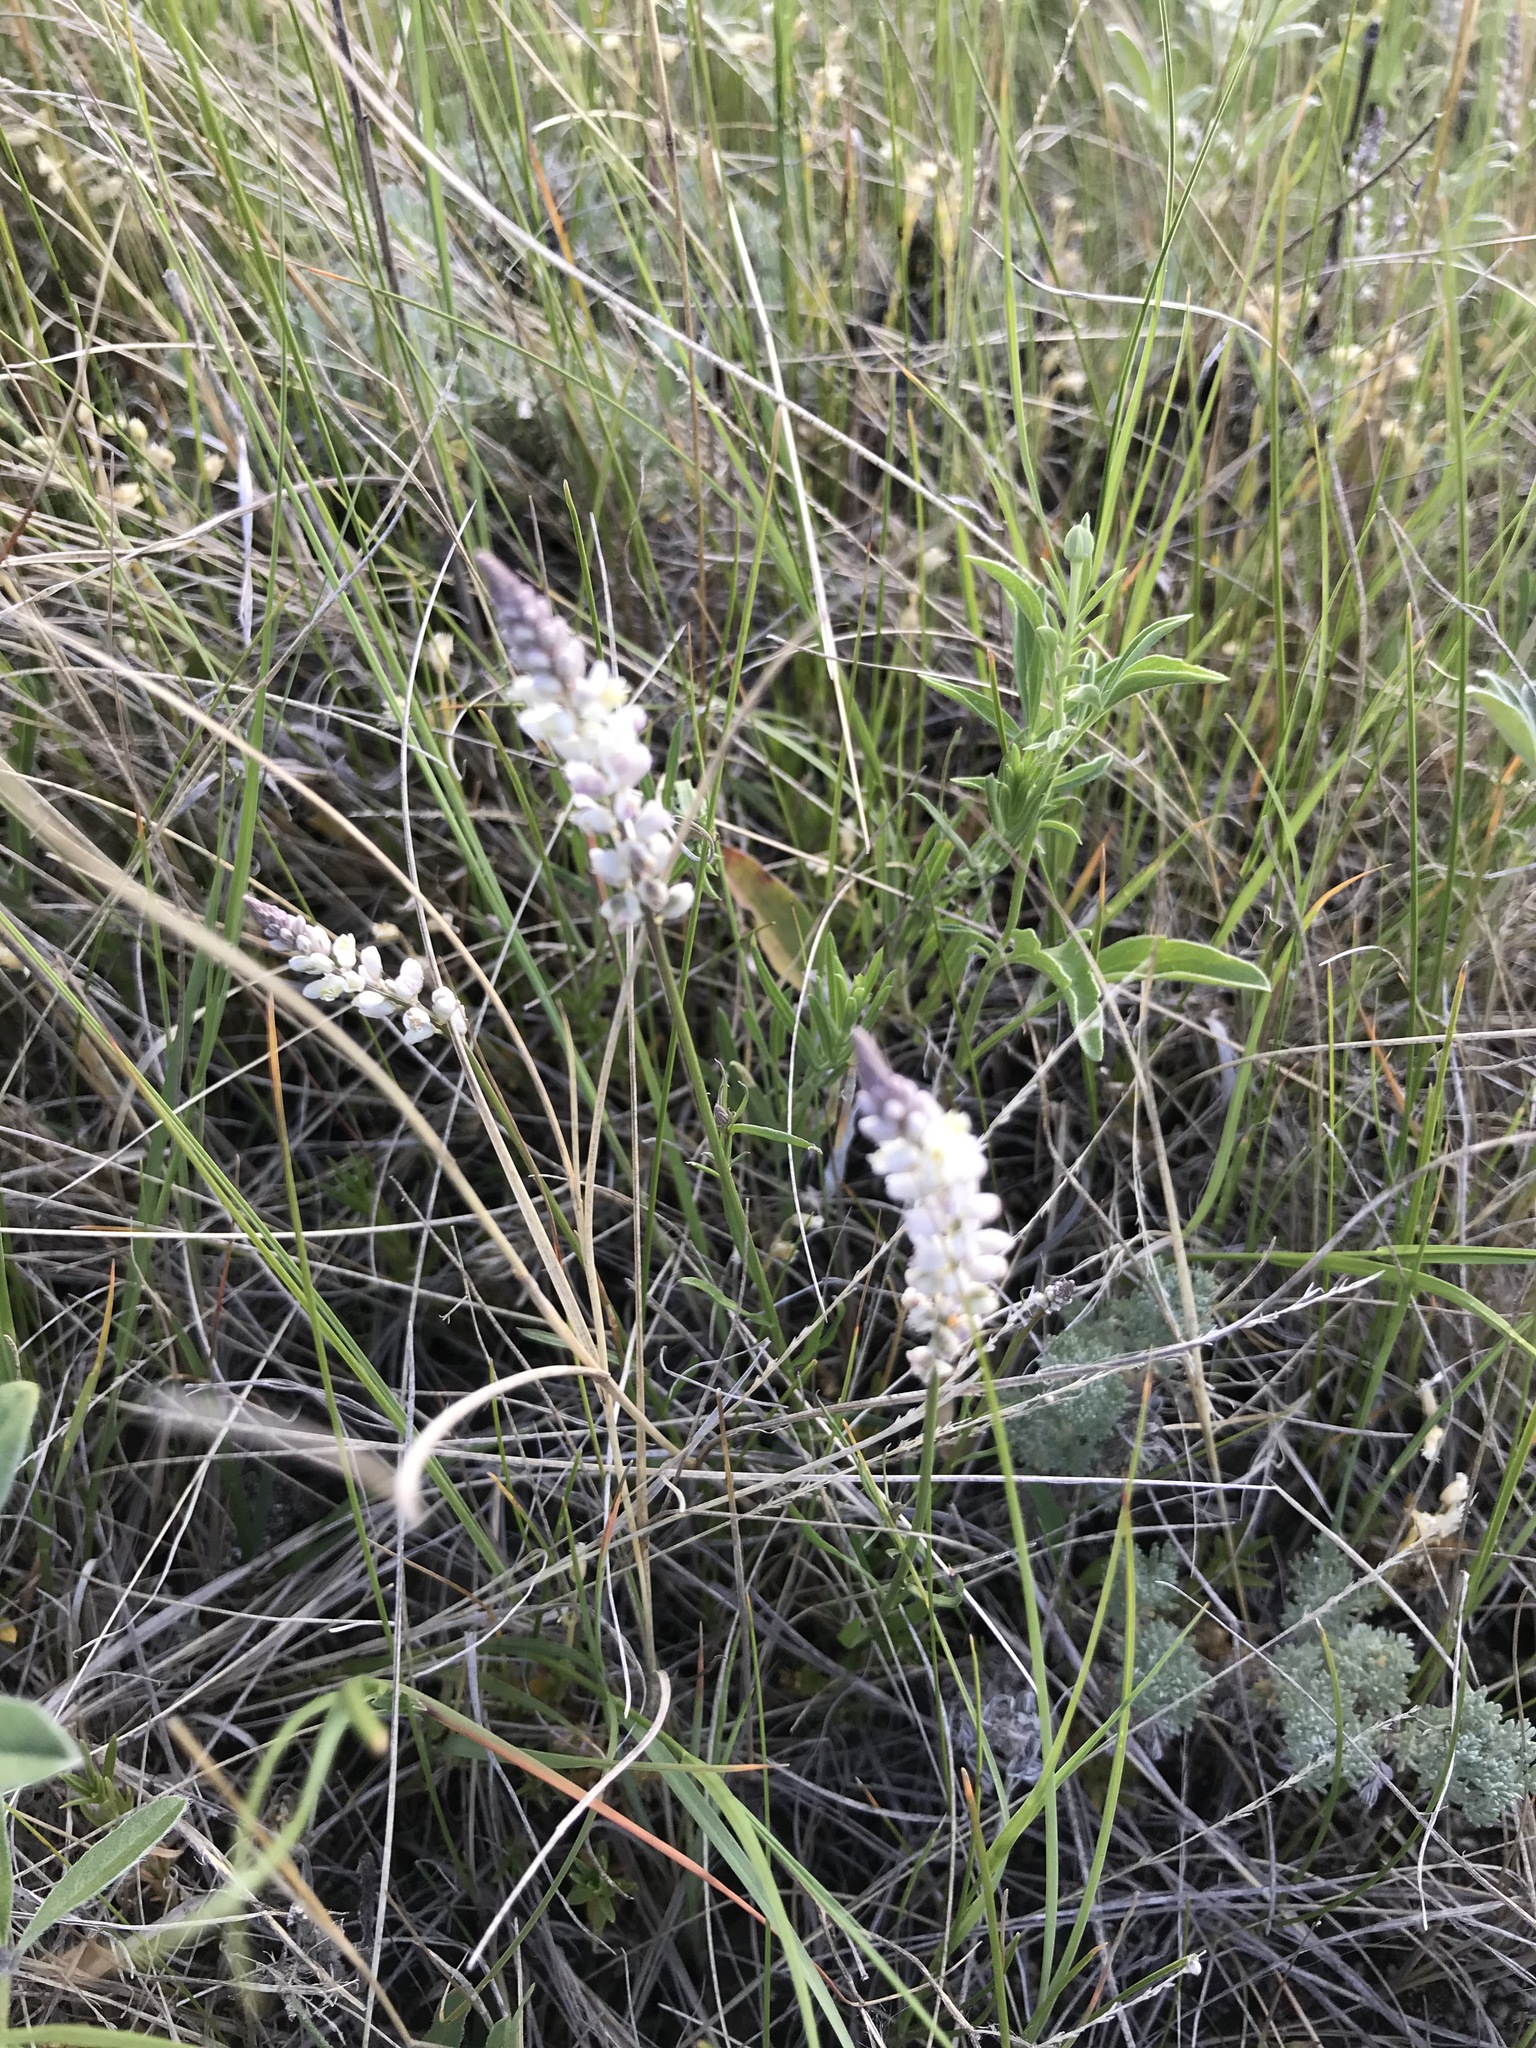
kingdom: Plantae
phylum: Tracheophyta
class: Magnoliopsida
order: Fabales
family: Polygalaceae
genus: Polygala
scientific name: Polygala alba
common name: White milkwort
